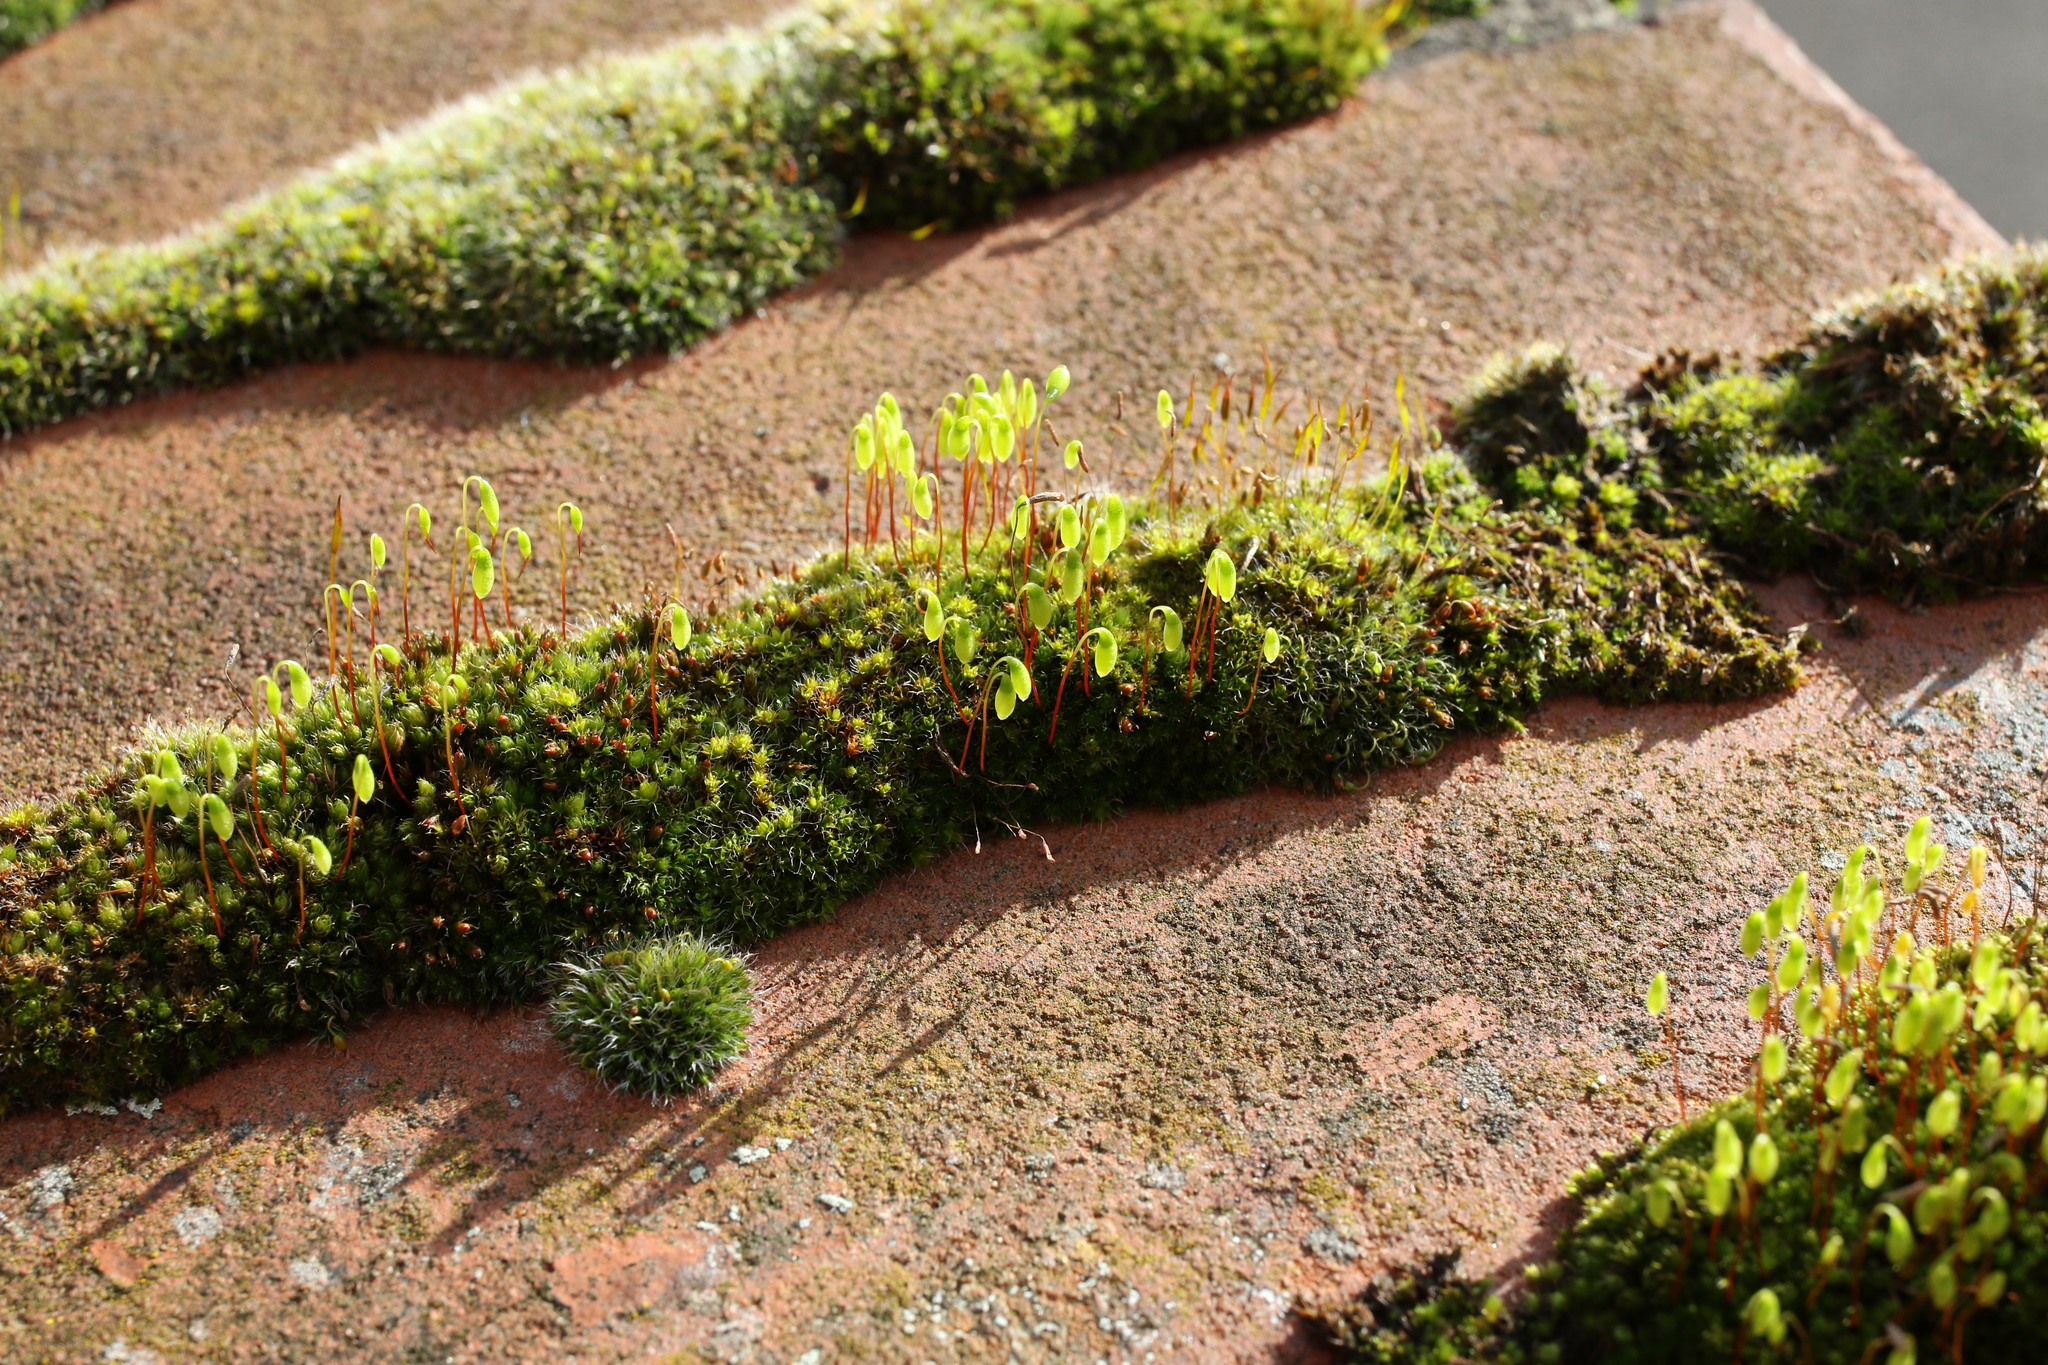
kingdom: Plantae
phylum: Bryophyta
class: Bryopsida
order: Bryales
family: Bryaceae
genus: Rosulabryum
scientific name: Rosulabryum capillare
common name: Capillary thread-moss
